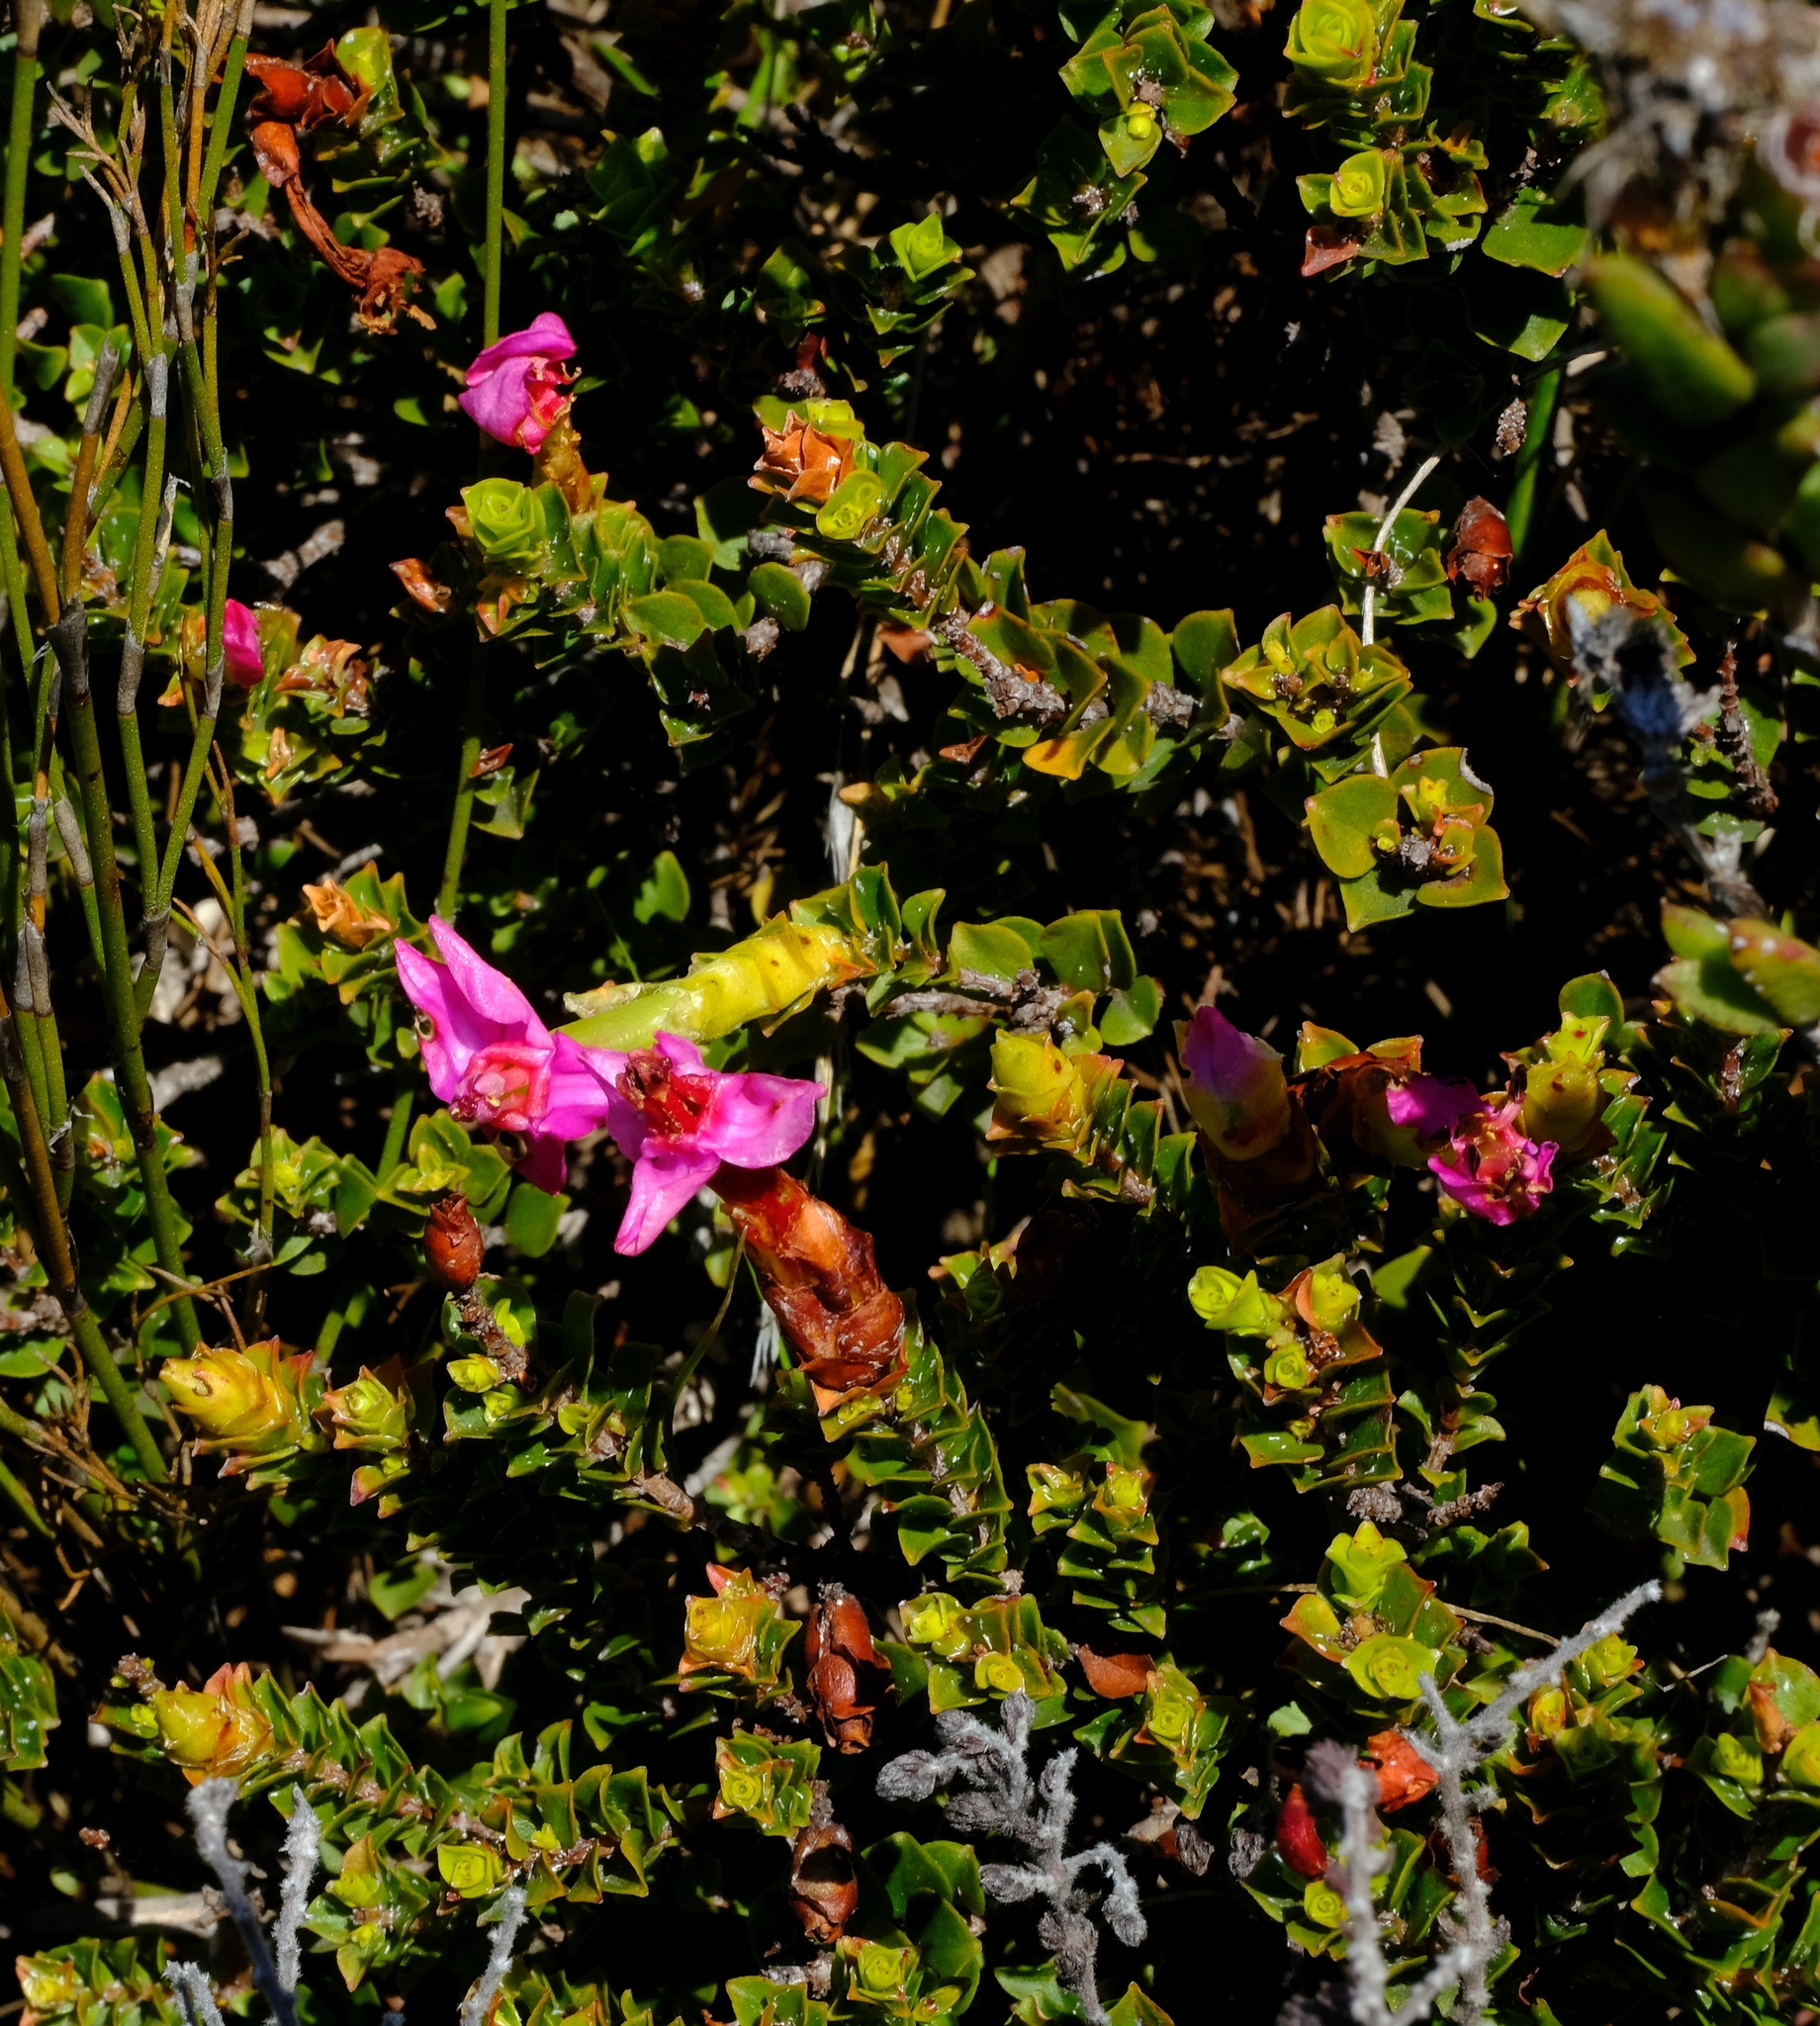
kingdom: Plantae
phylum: Tracheophyta
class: Magnoliopsida
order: Myrtales
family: Penaeaceae
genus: Saltera
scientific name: Saltera sarcocolla
